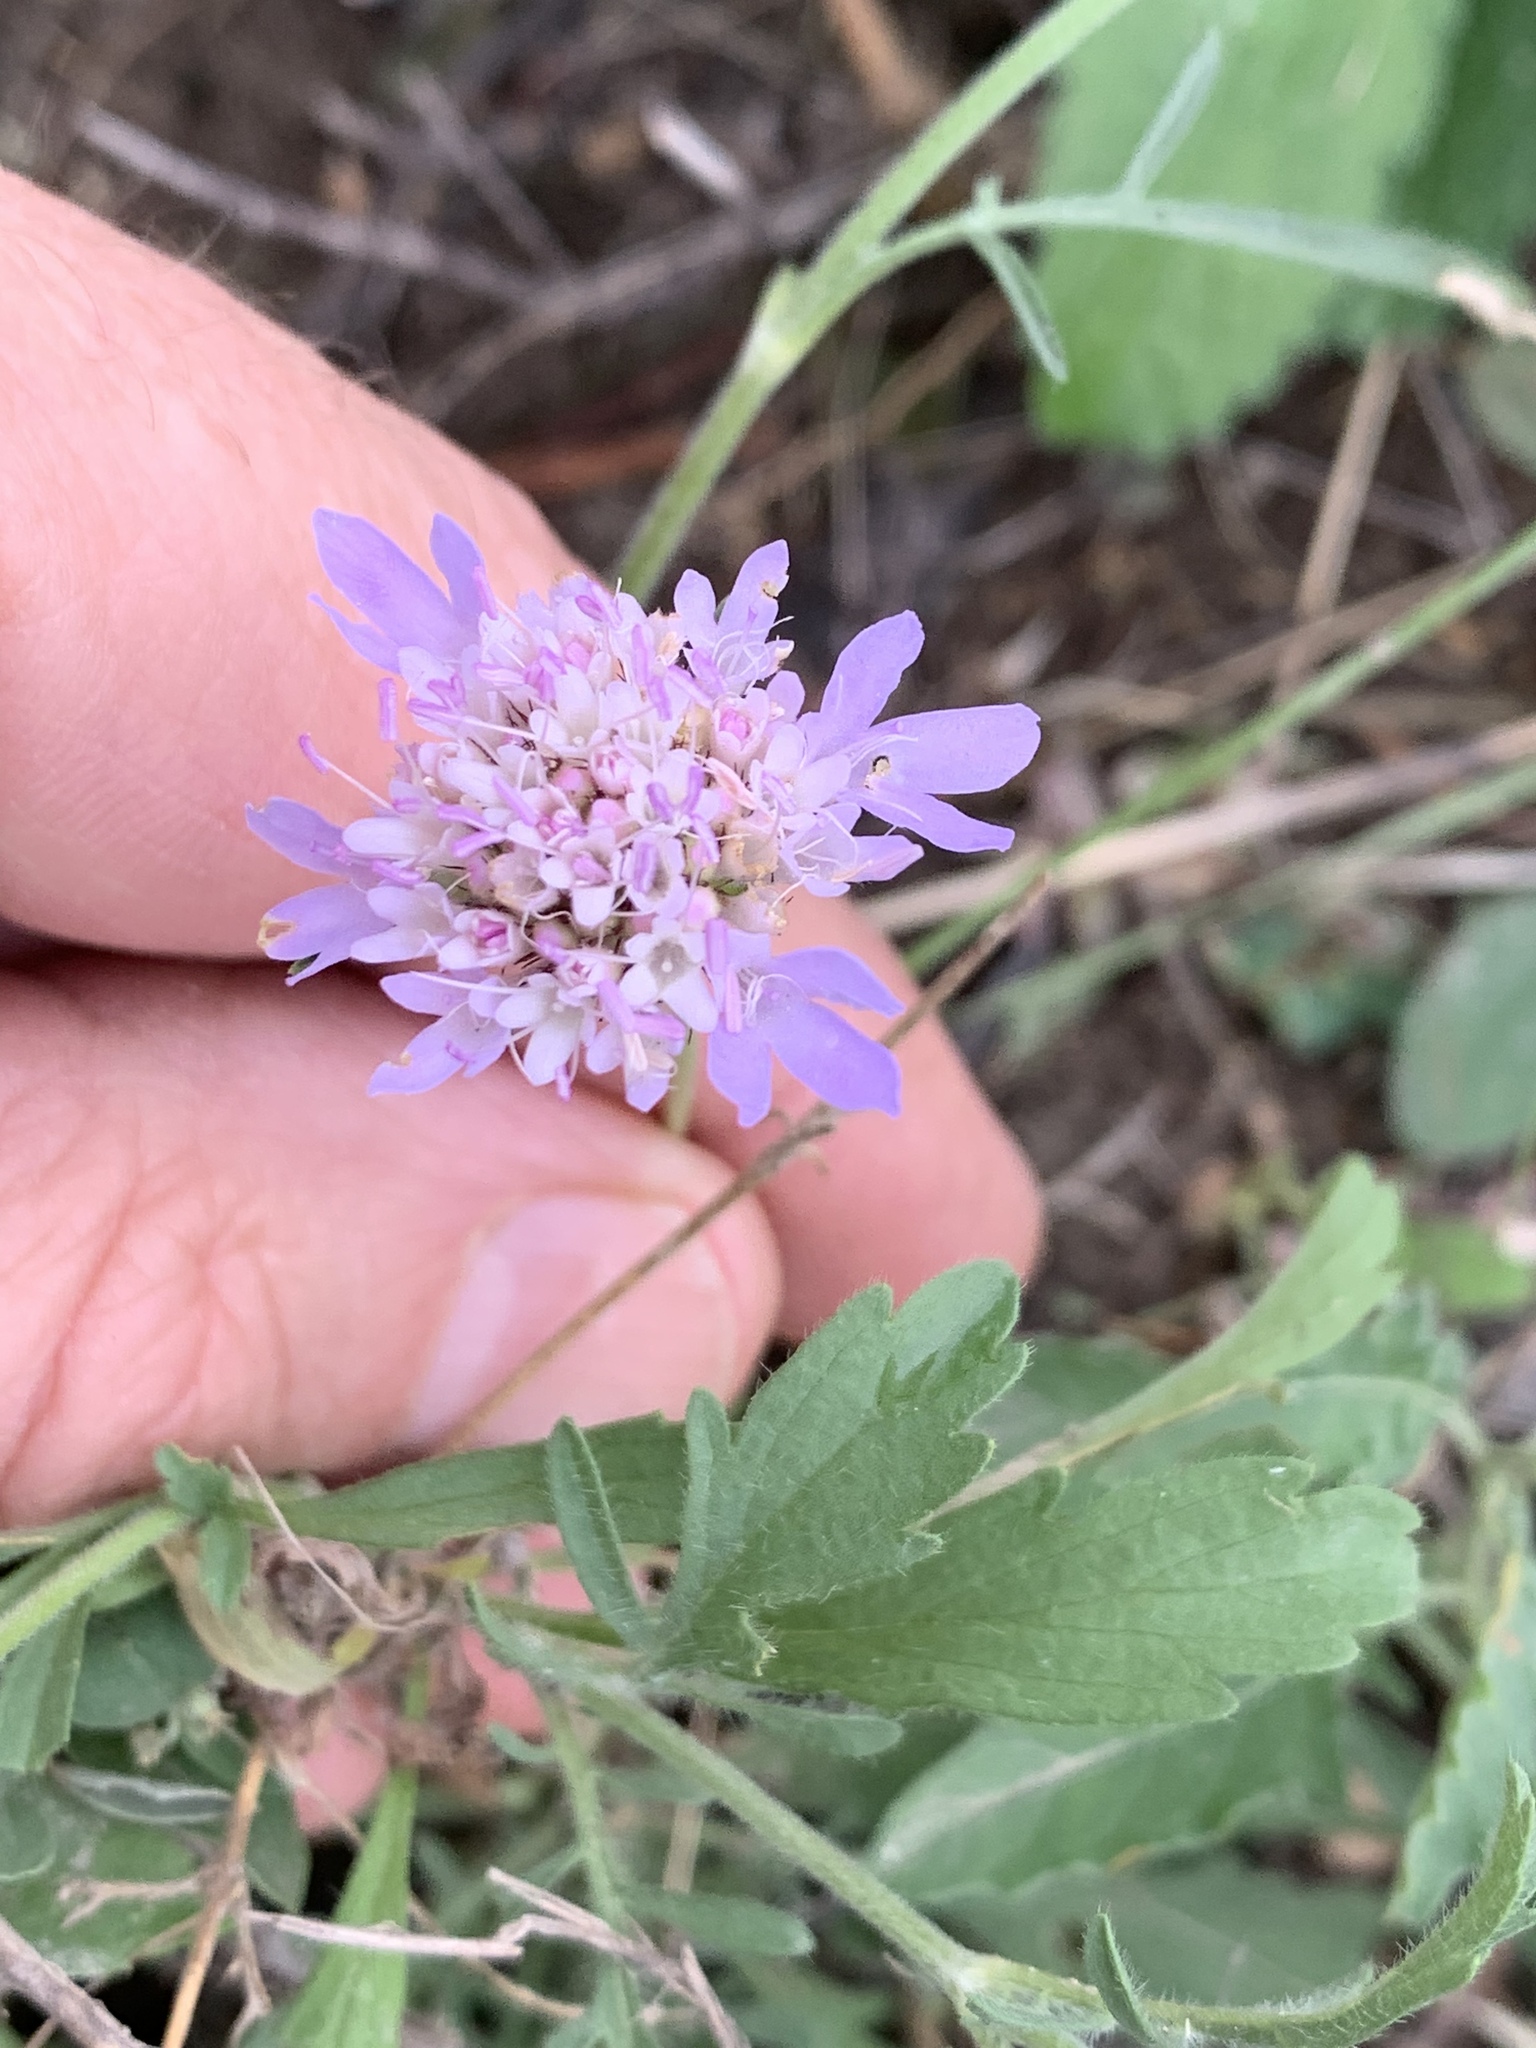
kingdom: Plantae
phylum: Tracheophyta
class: Magnoliopsida
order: Dipsacales
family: Caprifoliaceae
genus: Sixalix
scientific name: Sixalix atropurpurea
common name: Sweet scabious
